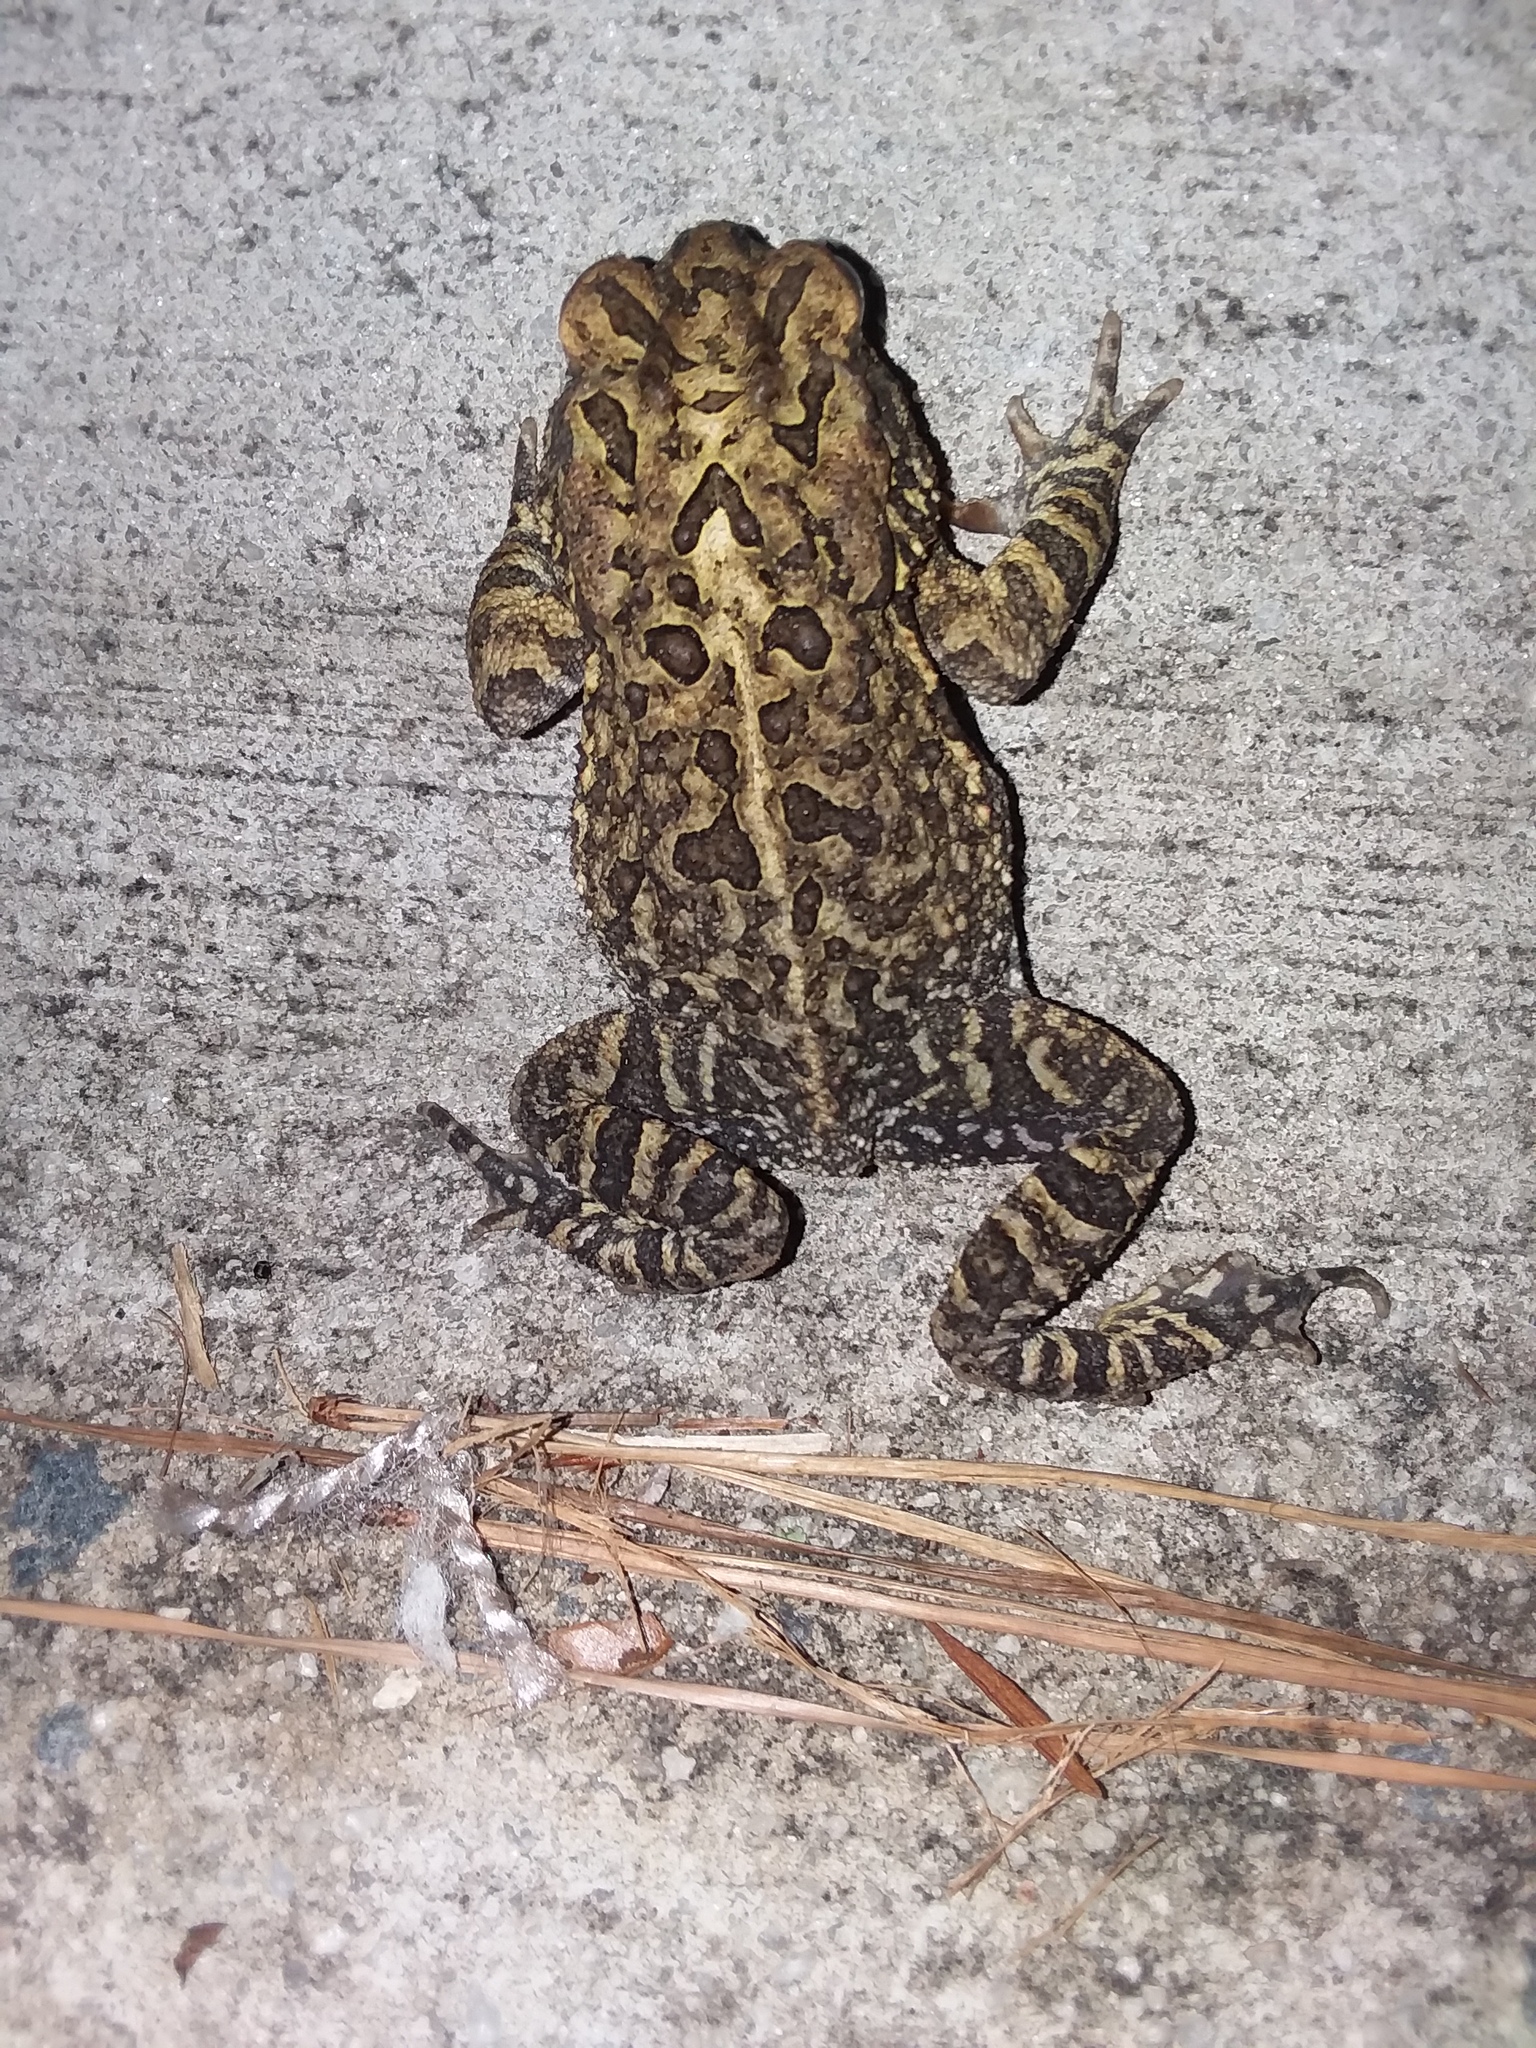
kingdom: Animalia
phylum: Chordata
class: Amphibia
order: Anura
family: Bufonidae
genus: Anaxyrus
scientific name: Anaxyrus terrestris
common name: Southern toad
